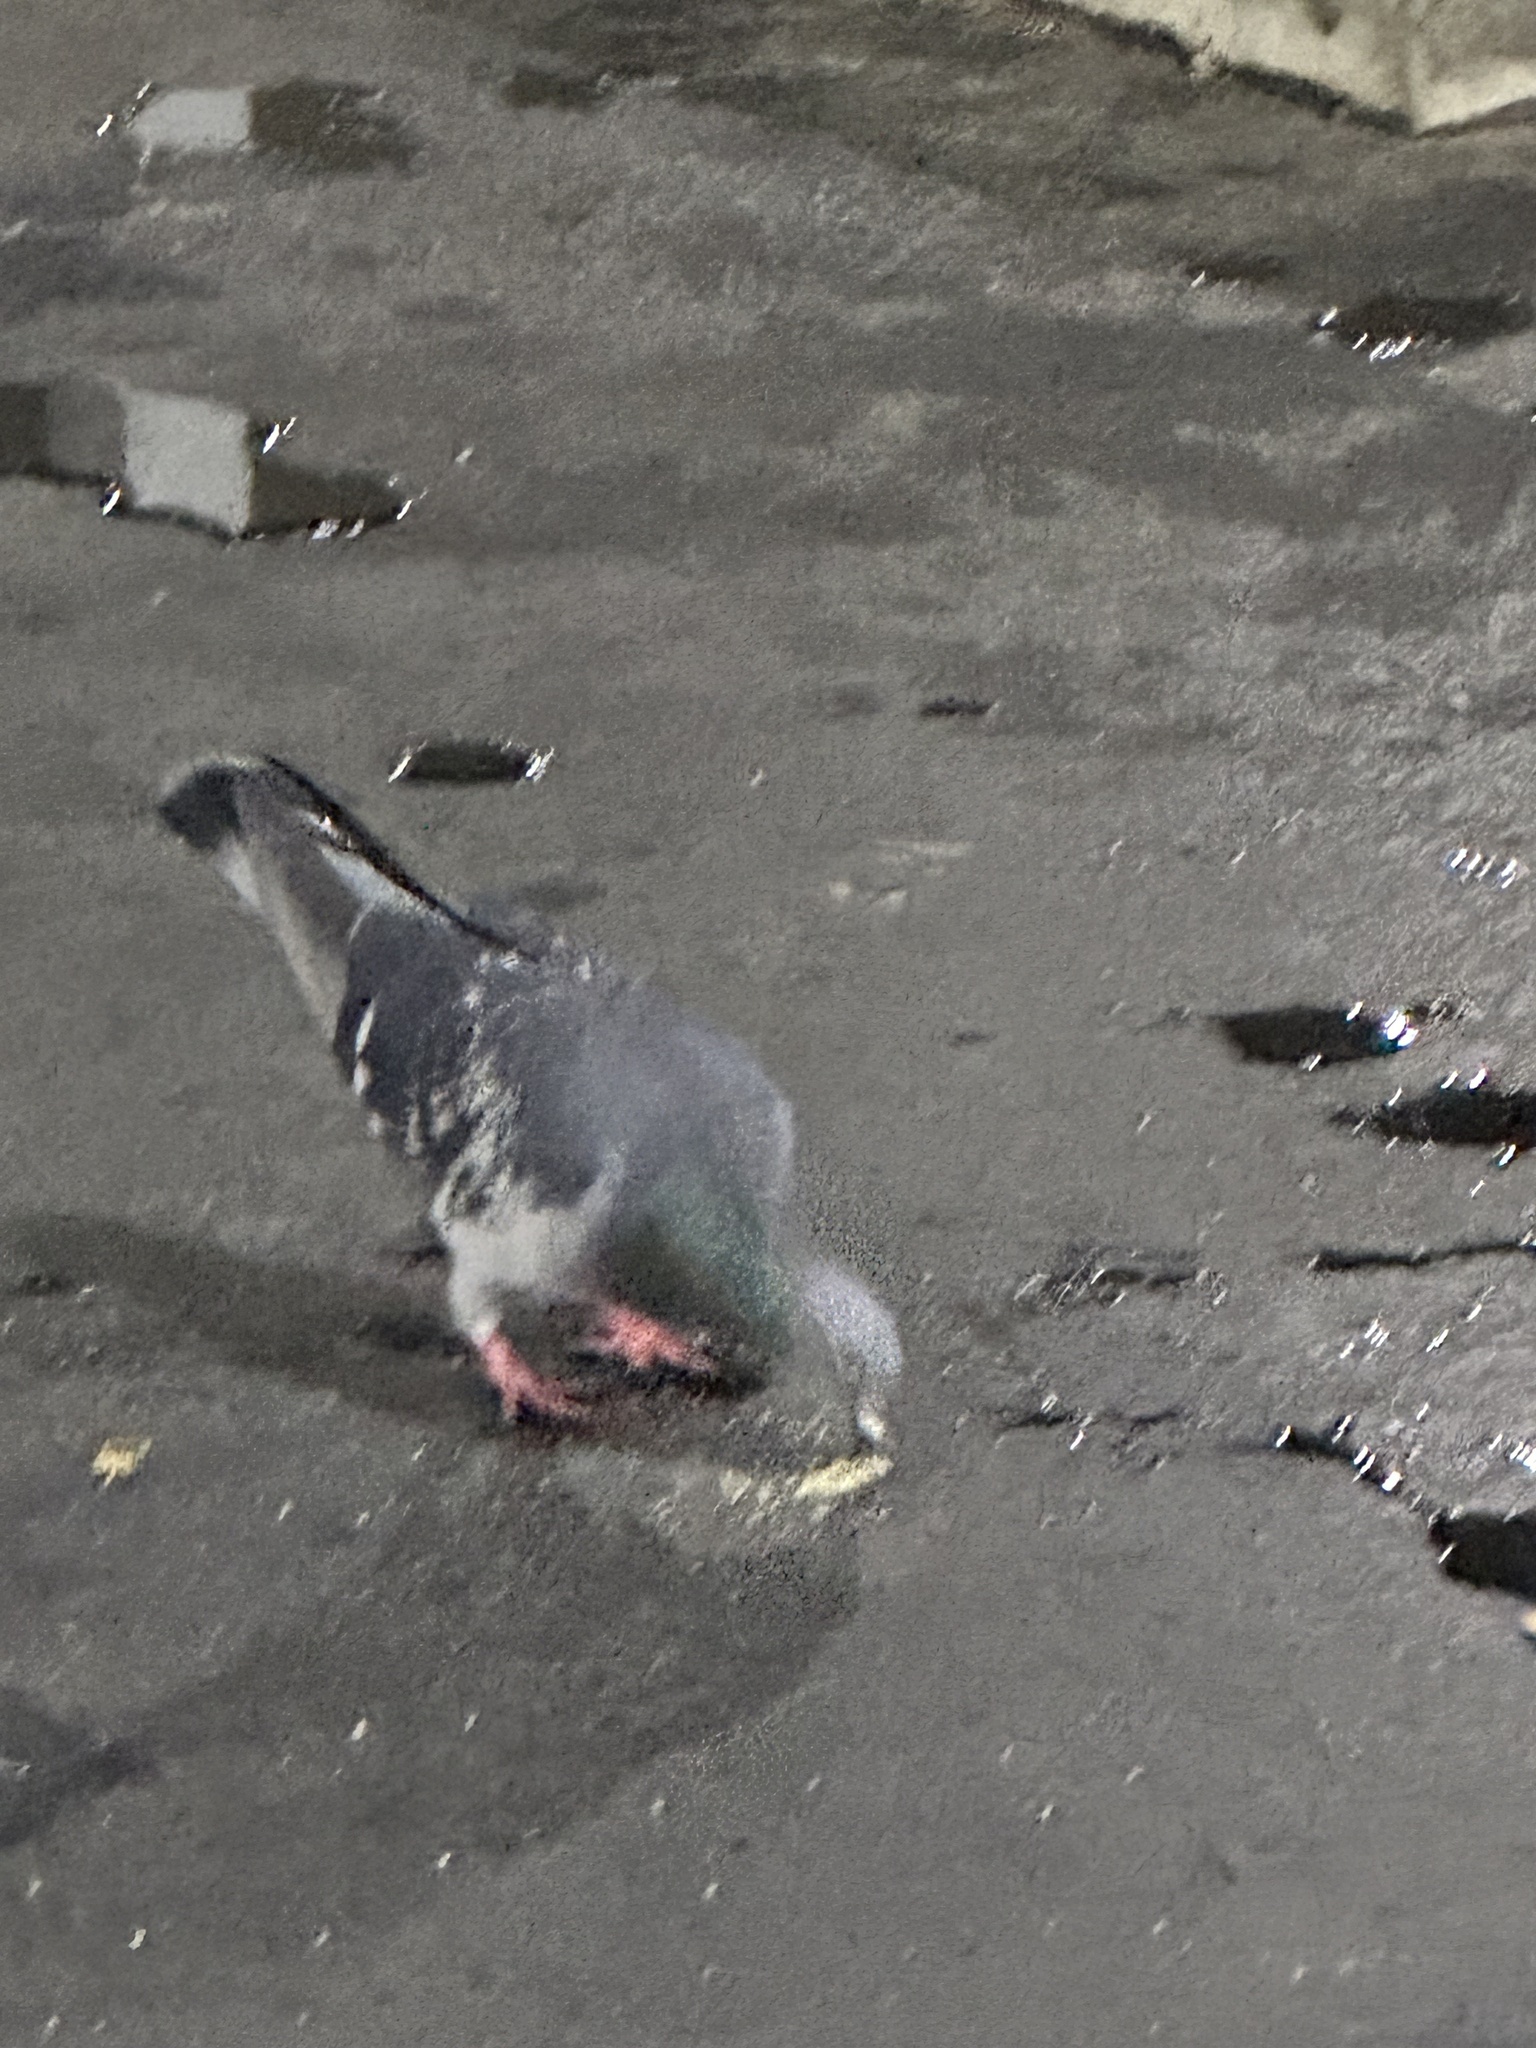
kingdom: Animalia
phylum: Chordata
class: Aves
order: Columbiformes
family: Columbidae
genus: Columba
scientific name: Columba livia
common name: Rock pigeon
